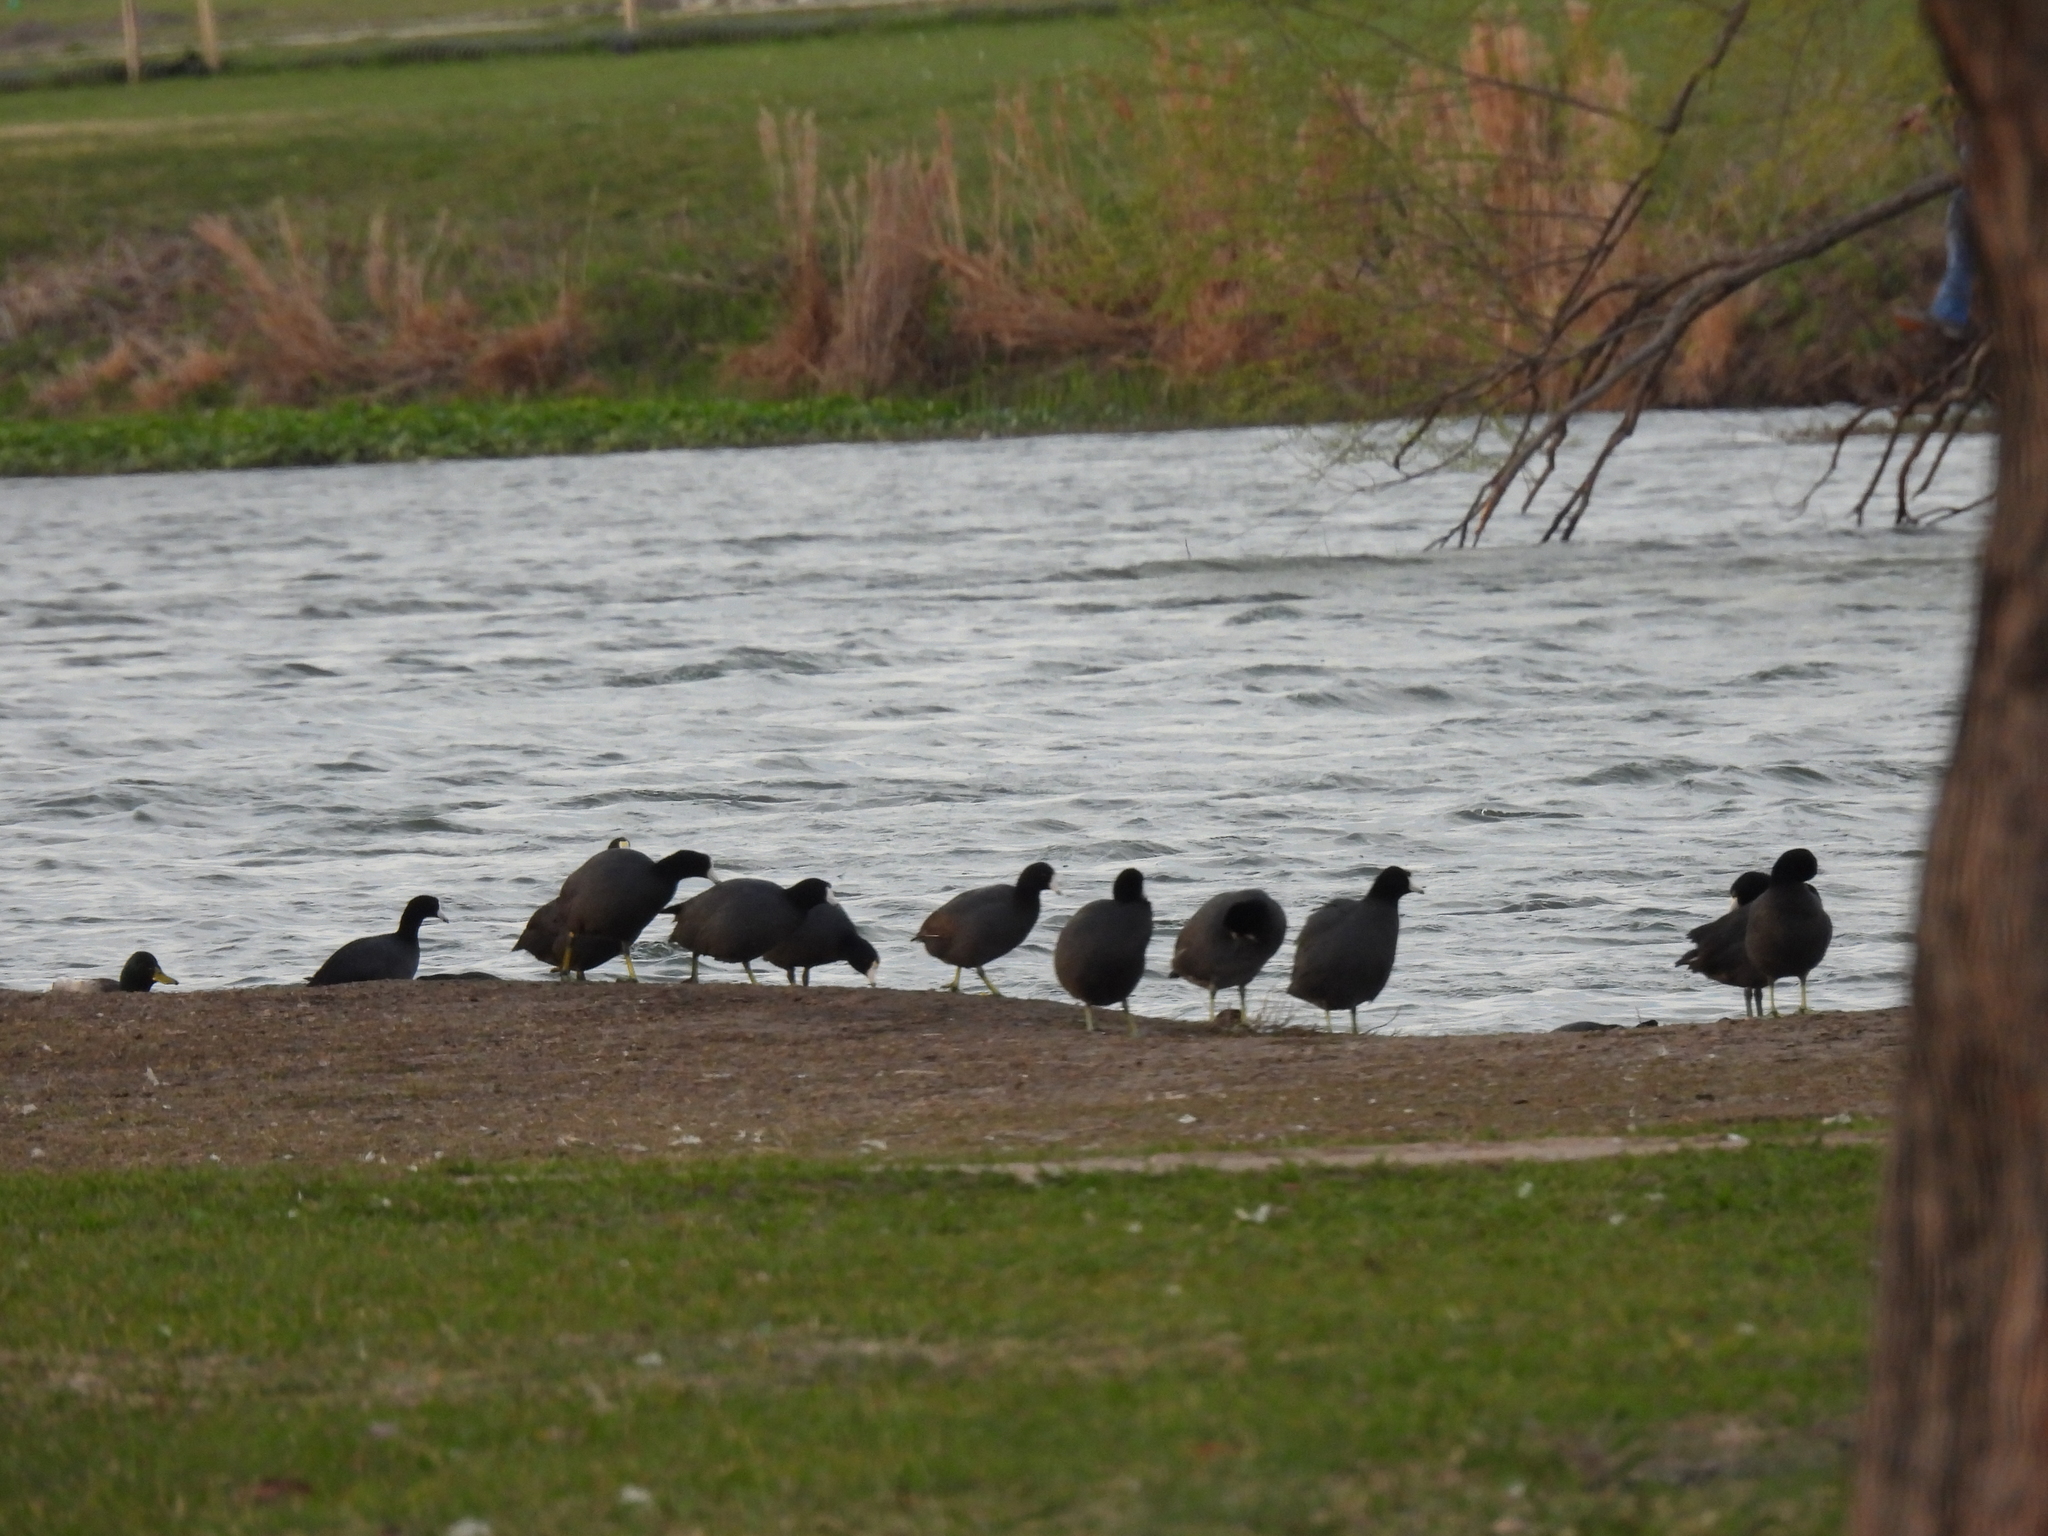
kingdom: Animalia
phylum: Chordata
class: Aves
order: Gruiformes
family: Rallidae
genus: Fulica
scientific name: Fulica americana
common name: American coot
